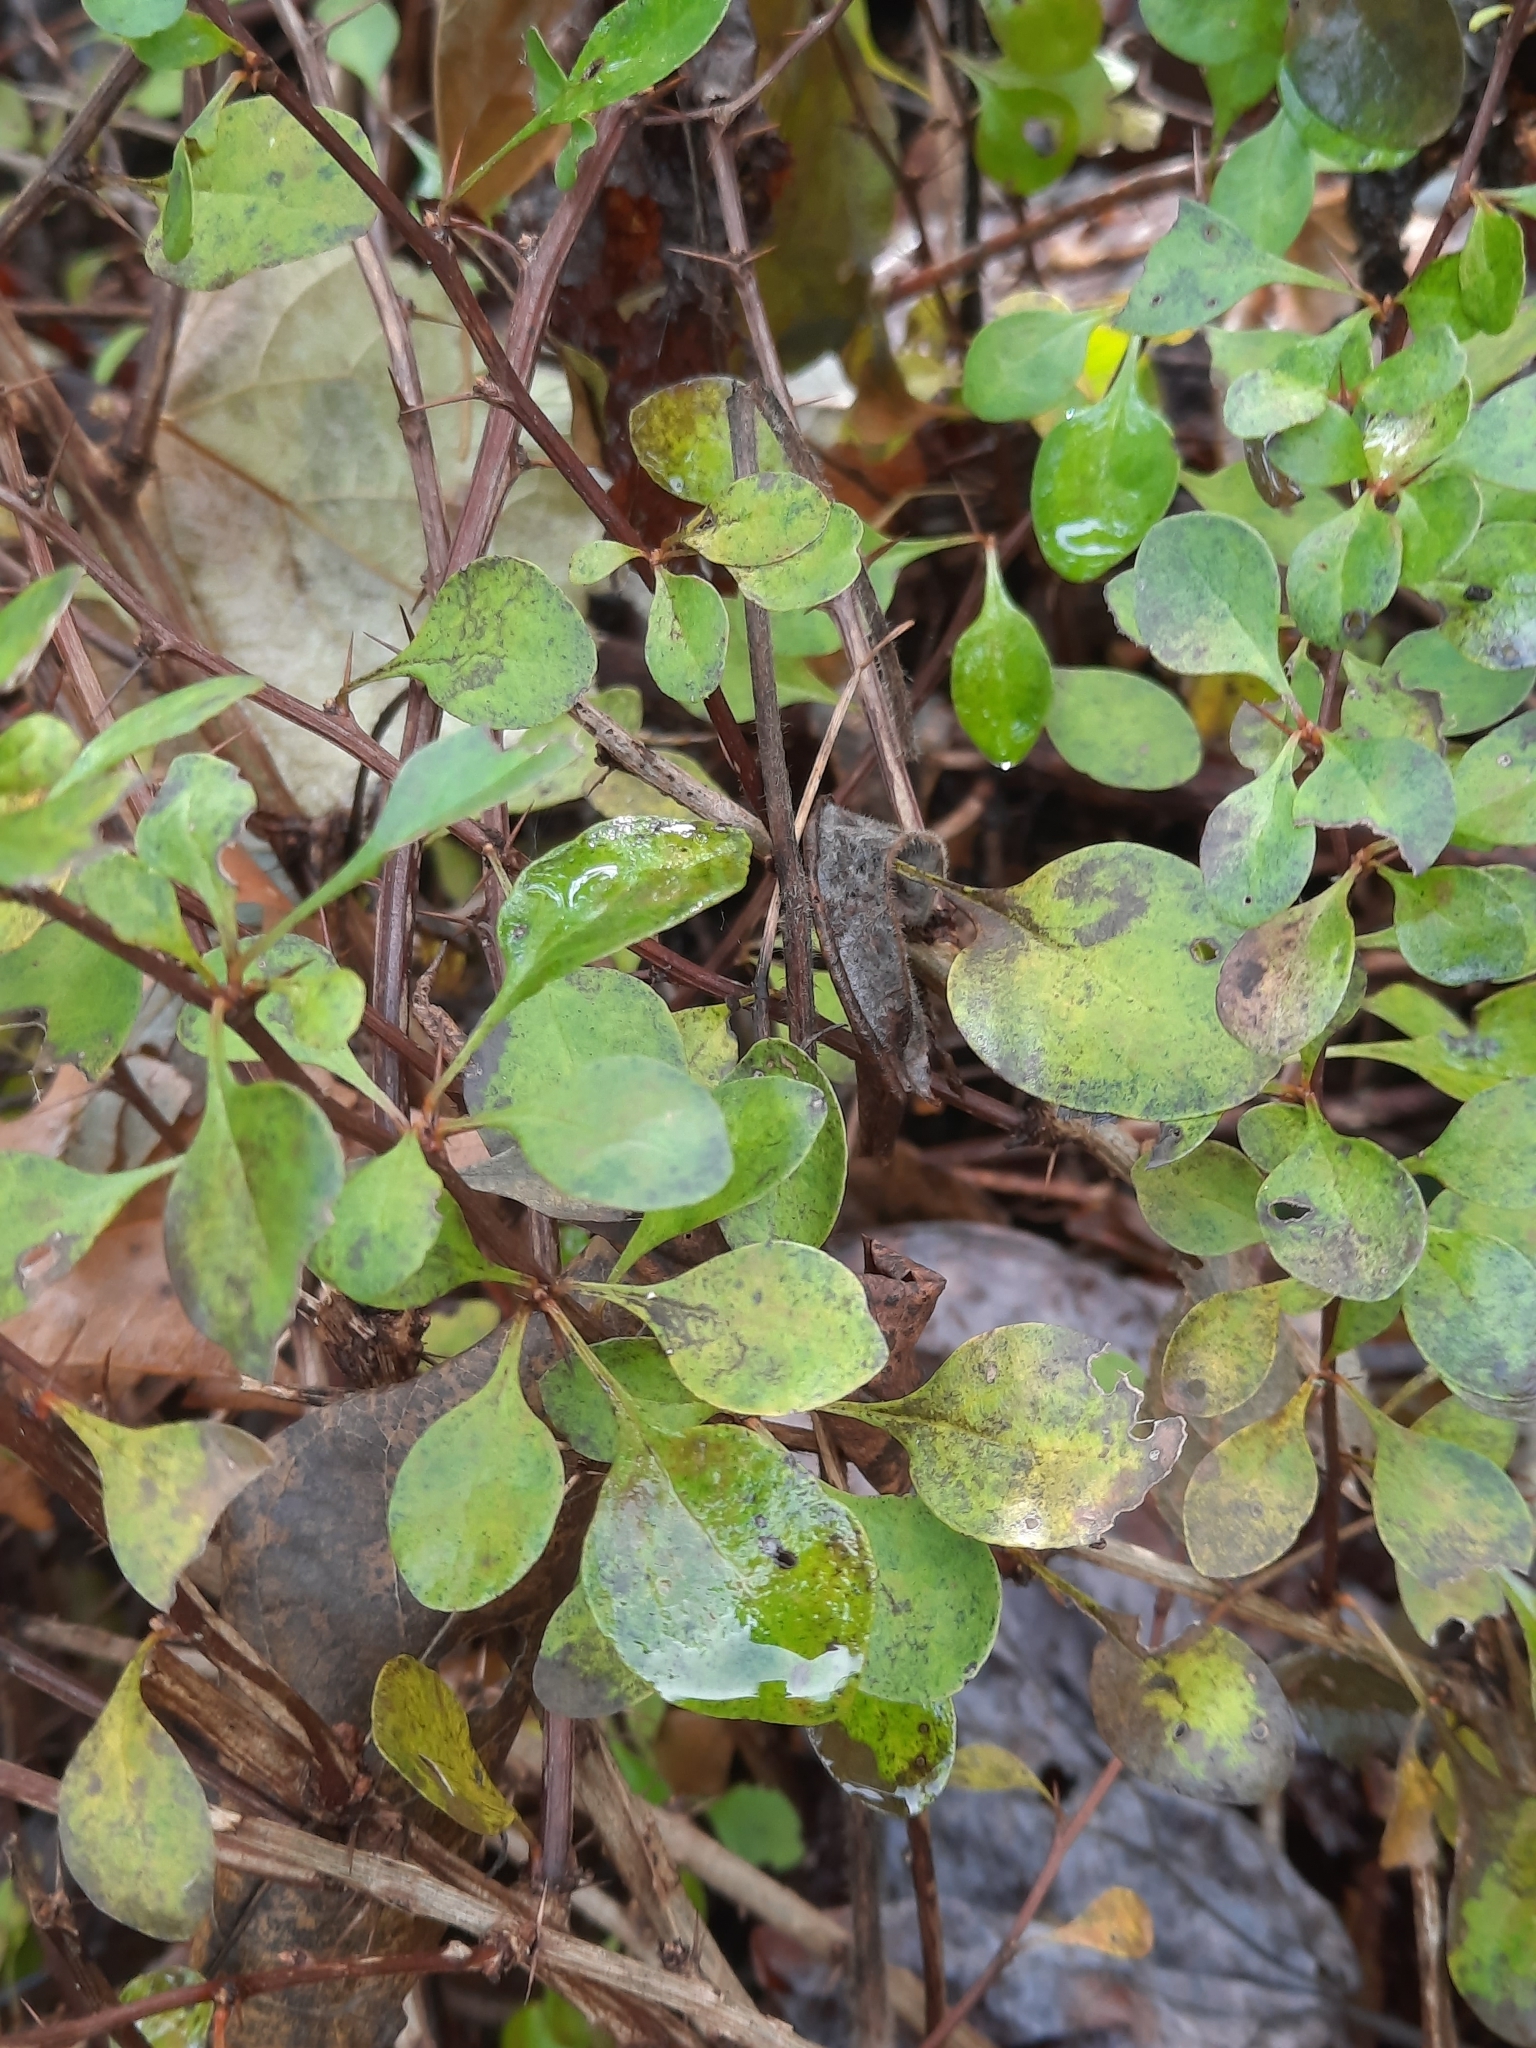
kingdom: Plantae
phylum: Tracheophyta
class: Magnoliopsida
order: Ranunculales
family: Berberidaceae
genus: Berberis
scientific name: Berberis thunbergii
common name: Japanese barberry
